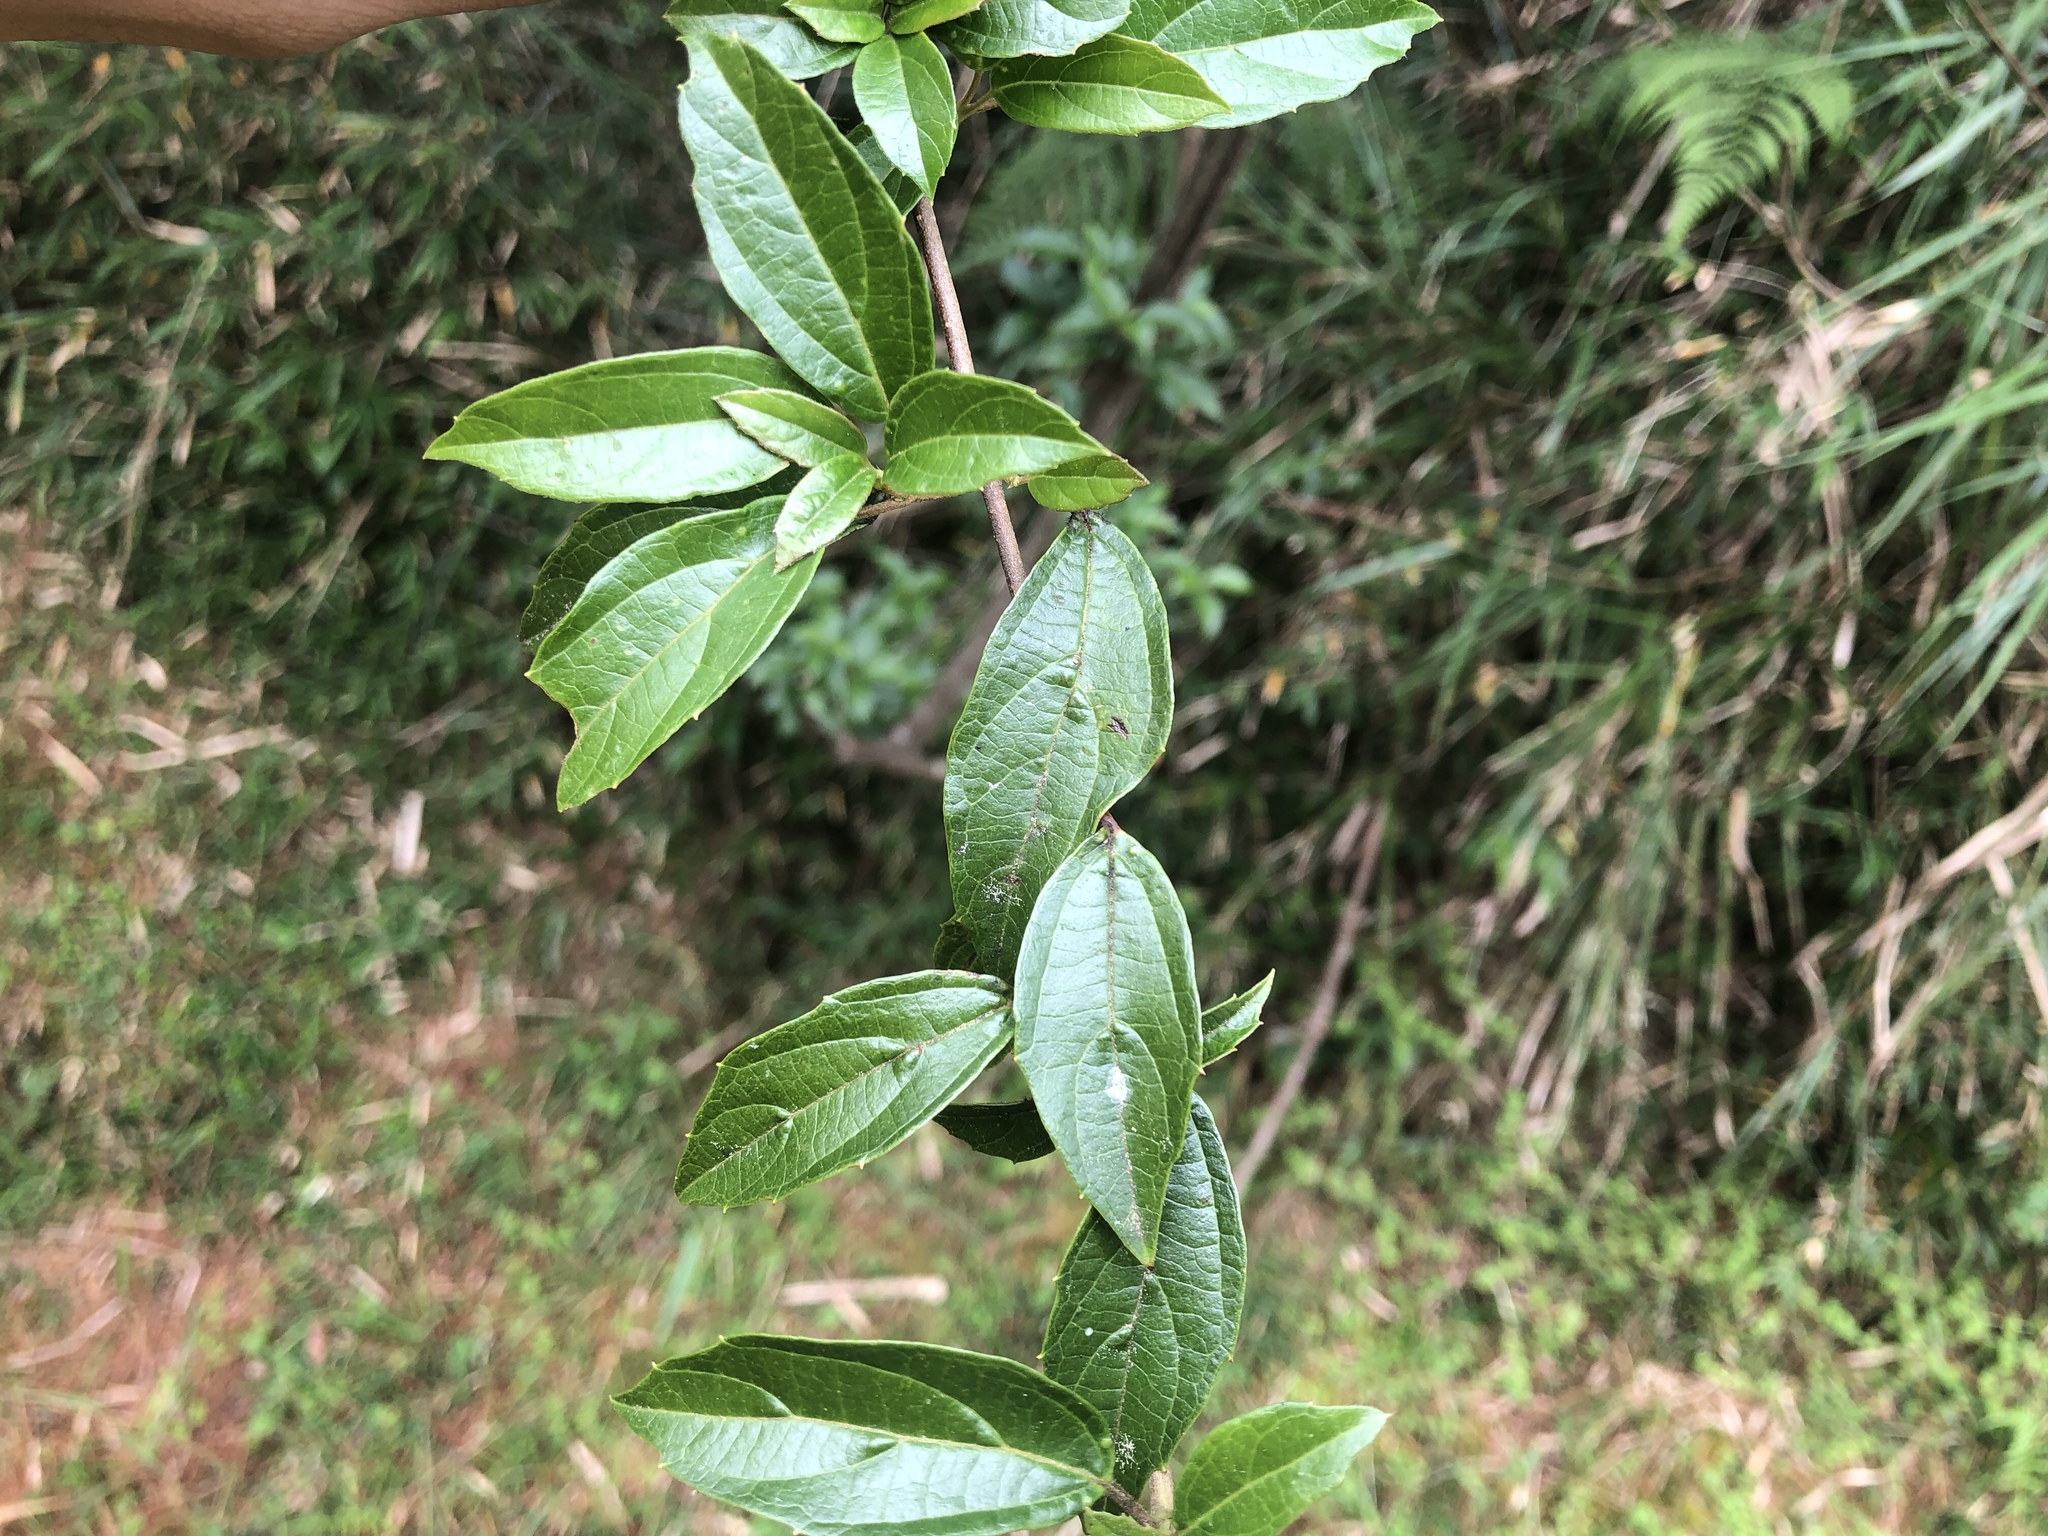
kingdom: Plantae
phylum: Tracheophyta
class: Magnoliopsida
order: Dipsacales
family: Viburnaceae
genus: Viburnum
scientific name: Viburnum foetidum
